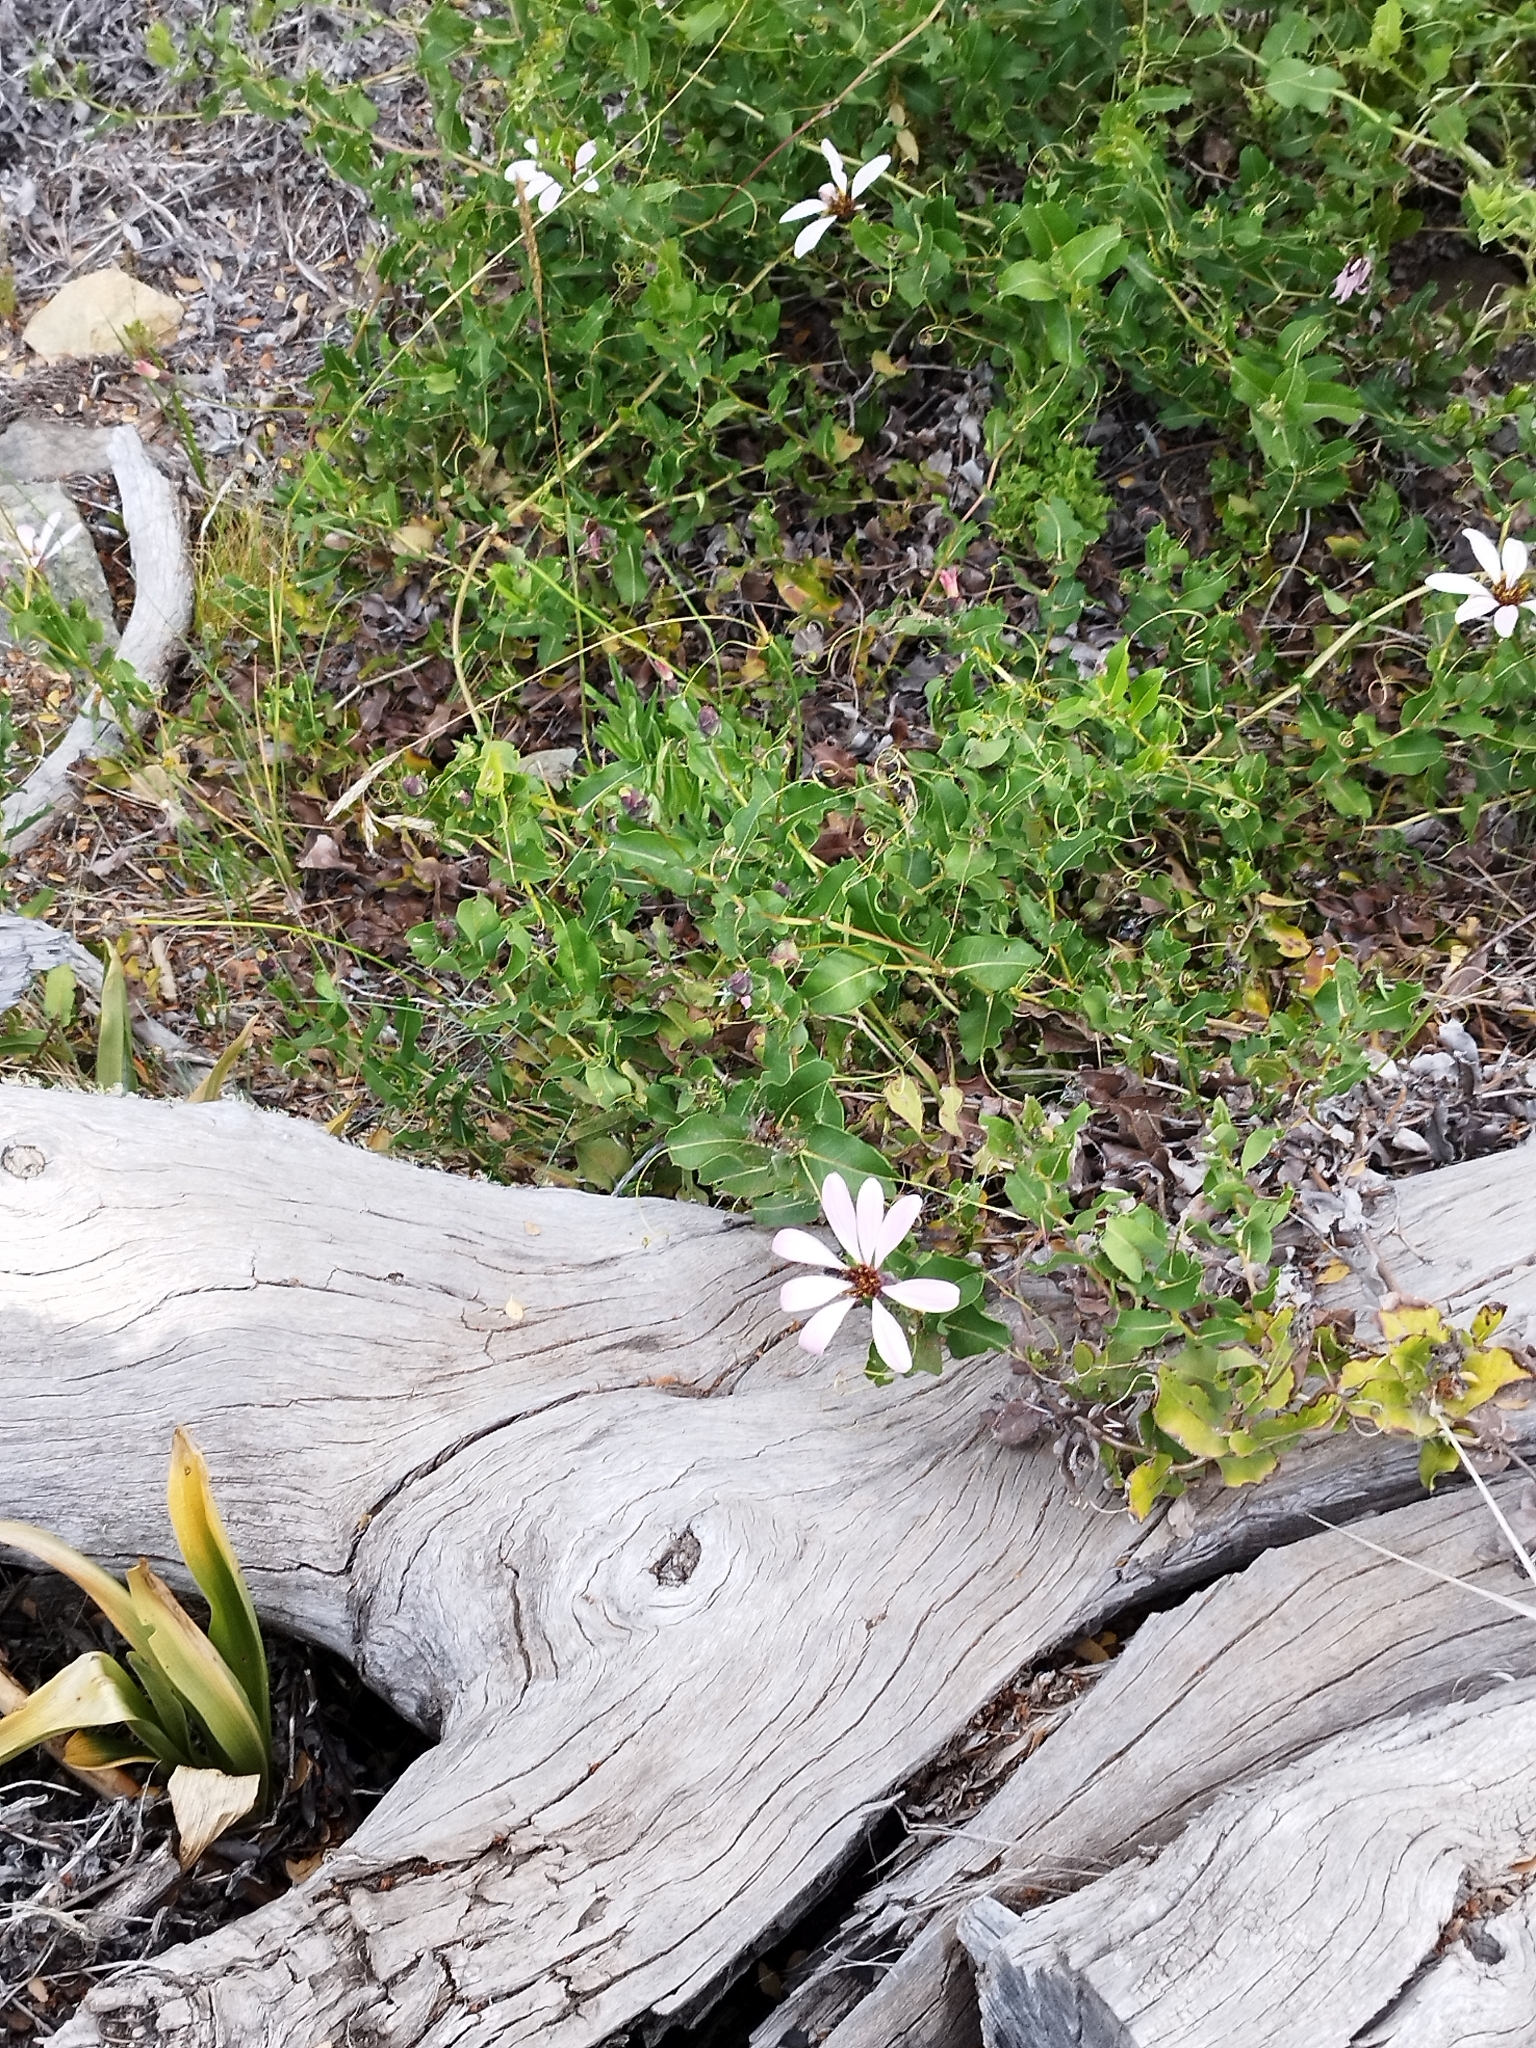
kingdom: Plantae
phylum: Tracheophyta
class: Magnoliopsida
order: Asterales
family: Asteraceae
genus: Mutisia
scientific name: Mutisia spinosa
